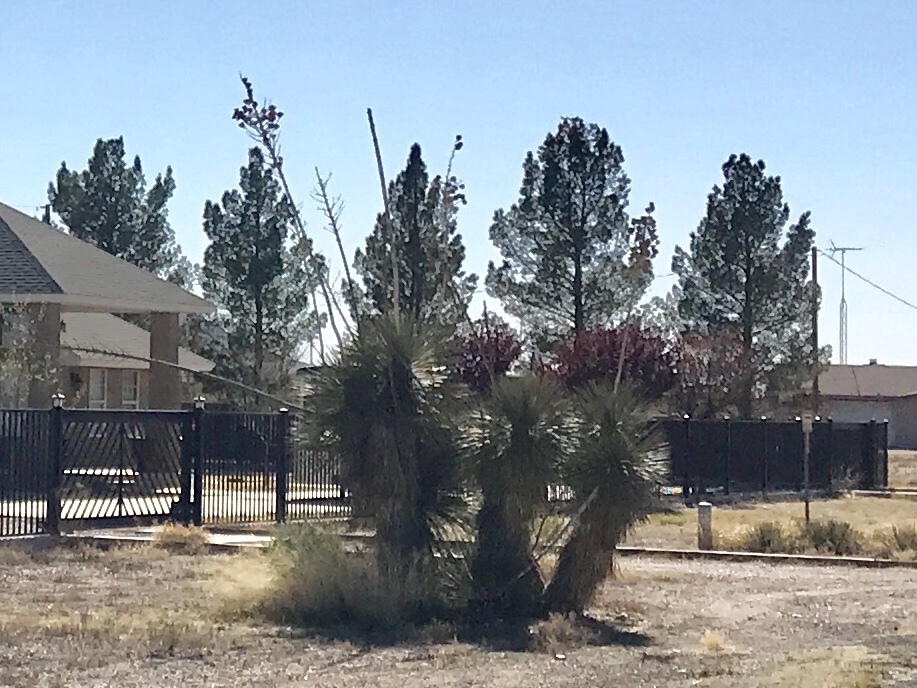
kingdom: Plantae
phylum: Tracheophyta
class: Liliopsida
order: Asparagales
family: Asparagaceae
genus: Yucca
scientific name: Yucca elata
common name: Palmella
